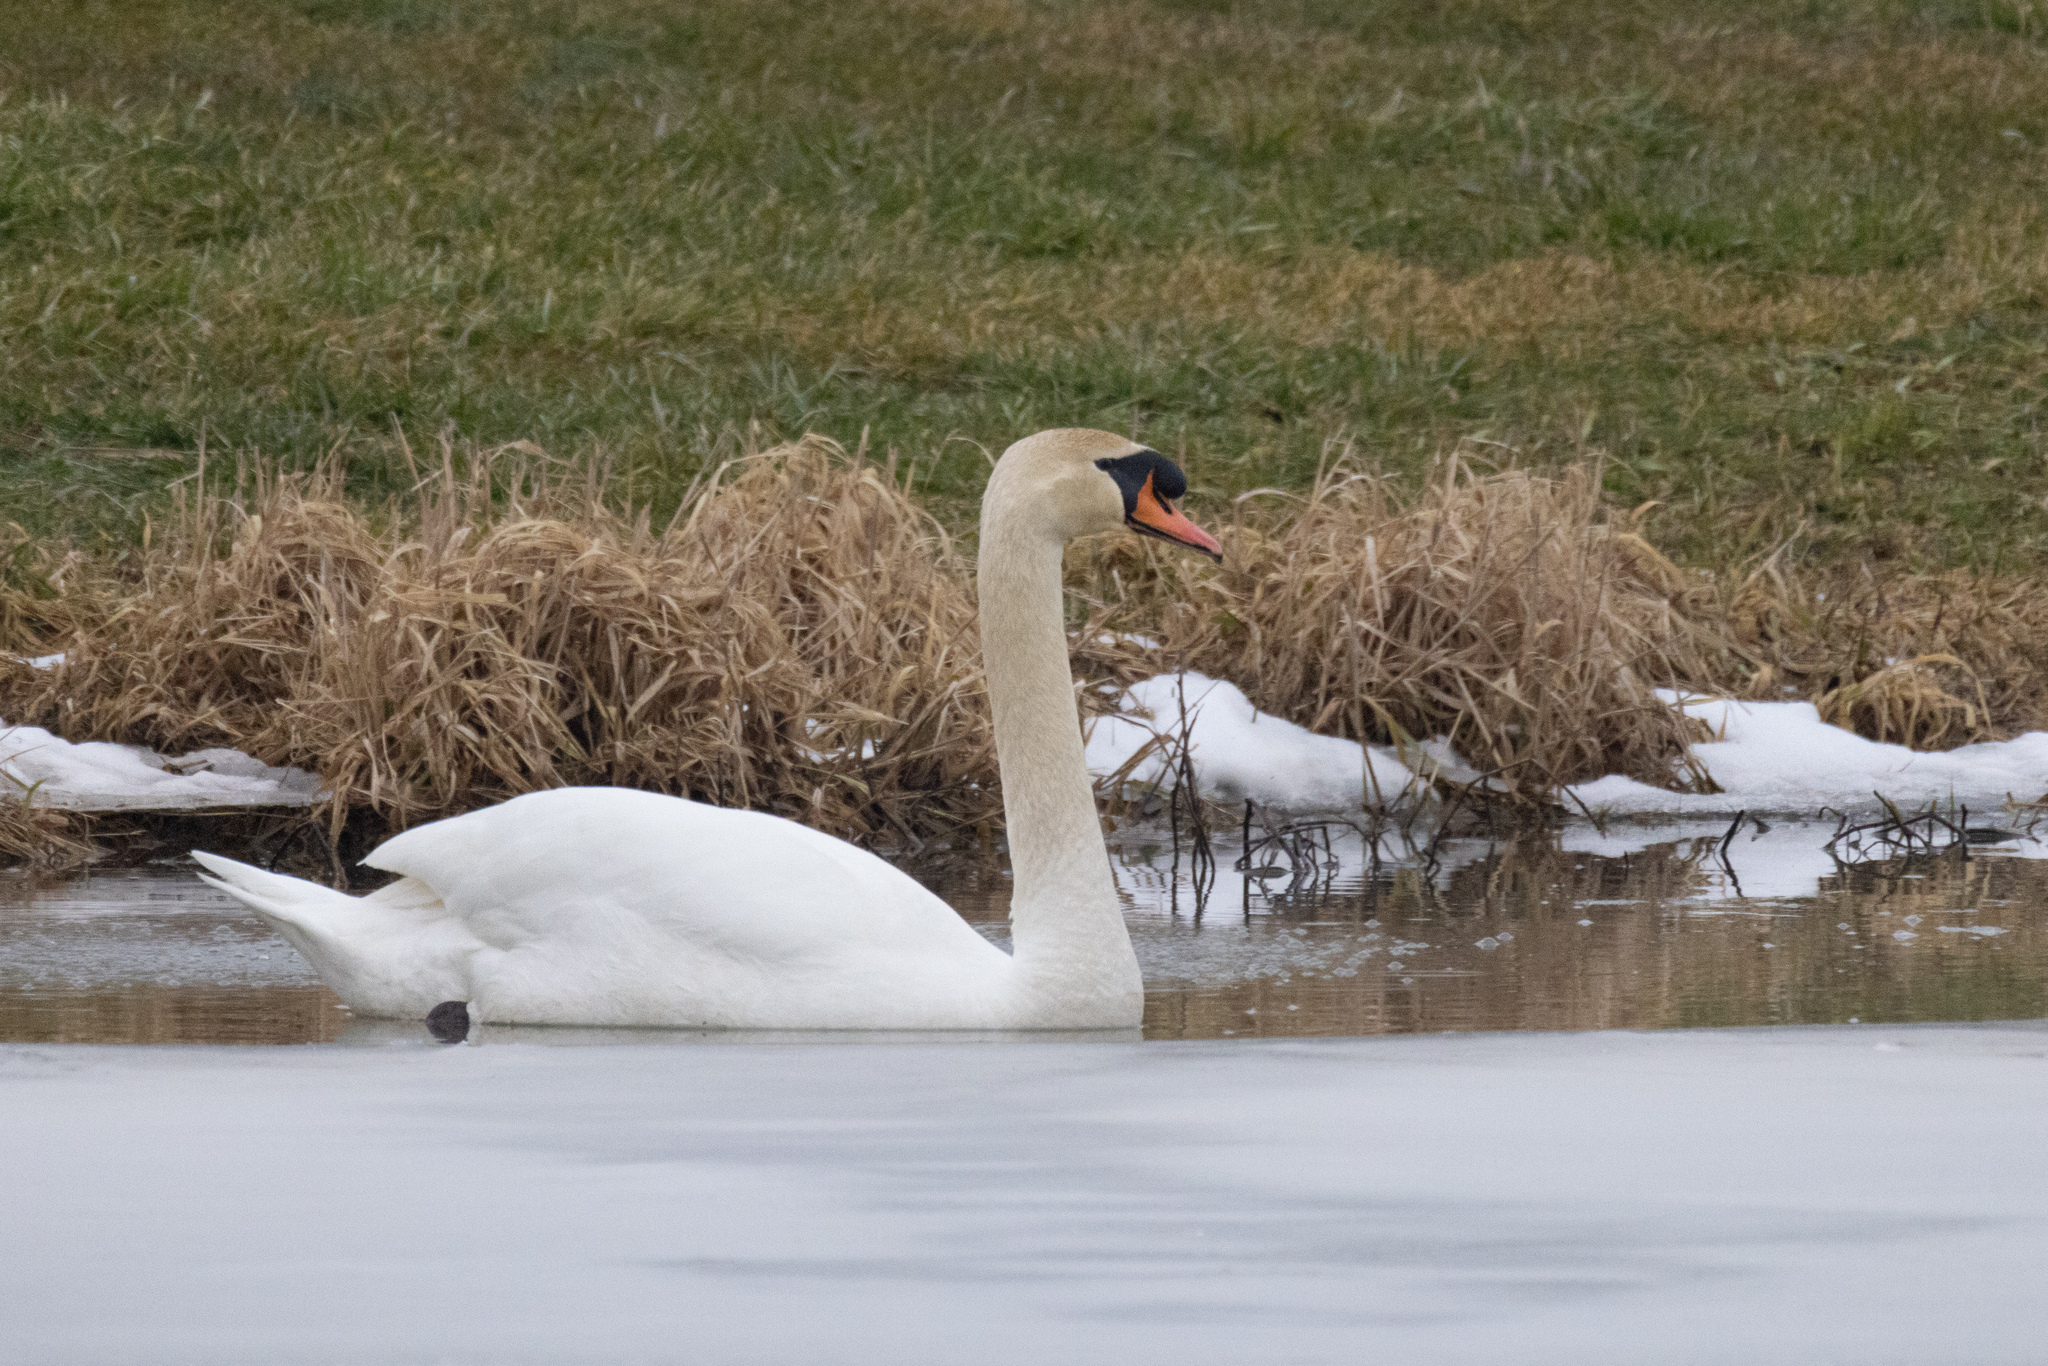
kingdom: Animalia
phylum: Chordata
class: Aves
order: Anseriformes
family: Anatidae
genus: Cygnus
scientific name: Cygnus olor
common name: Mute swan
